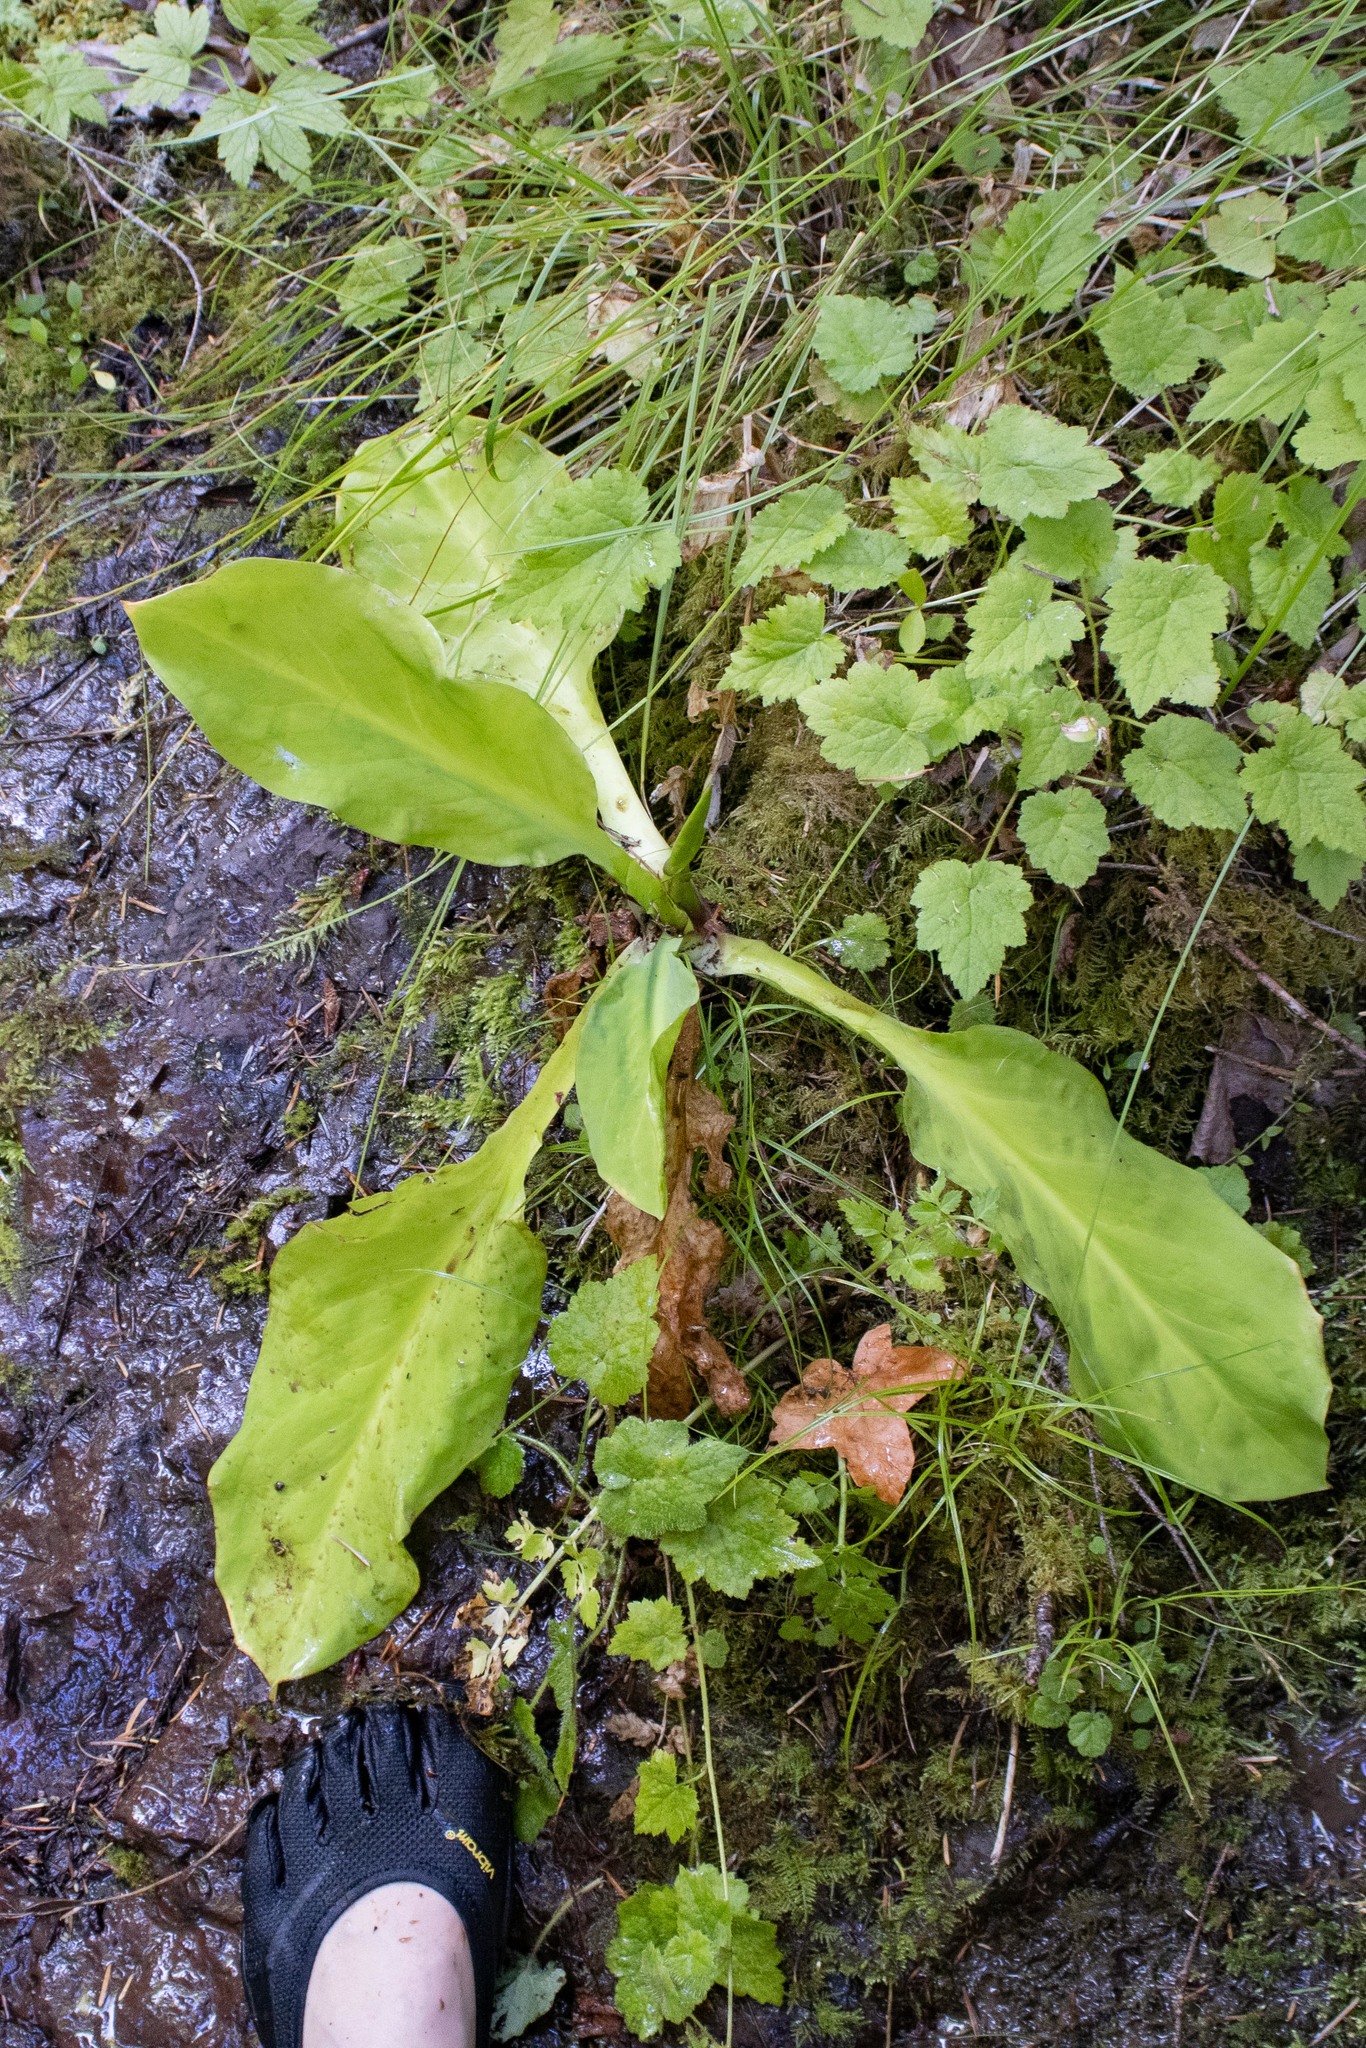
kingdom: Plantae
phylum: Tracheophyta
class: Liliopsida
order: Alismatales
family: Araceae
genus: Lysichiton
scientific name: Lysichiton americanus
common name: American skunk cabbage
